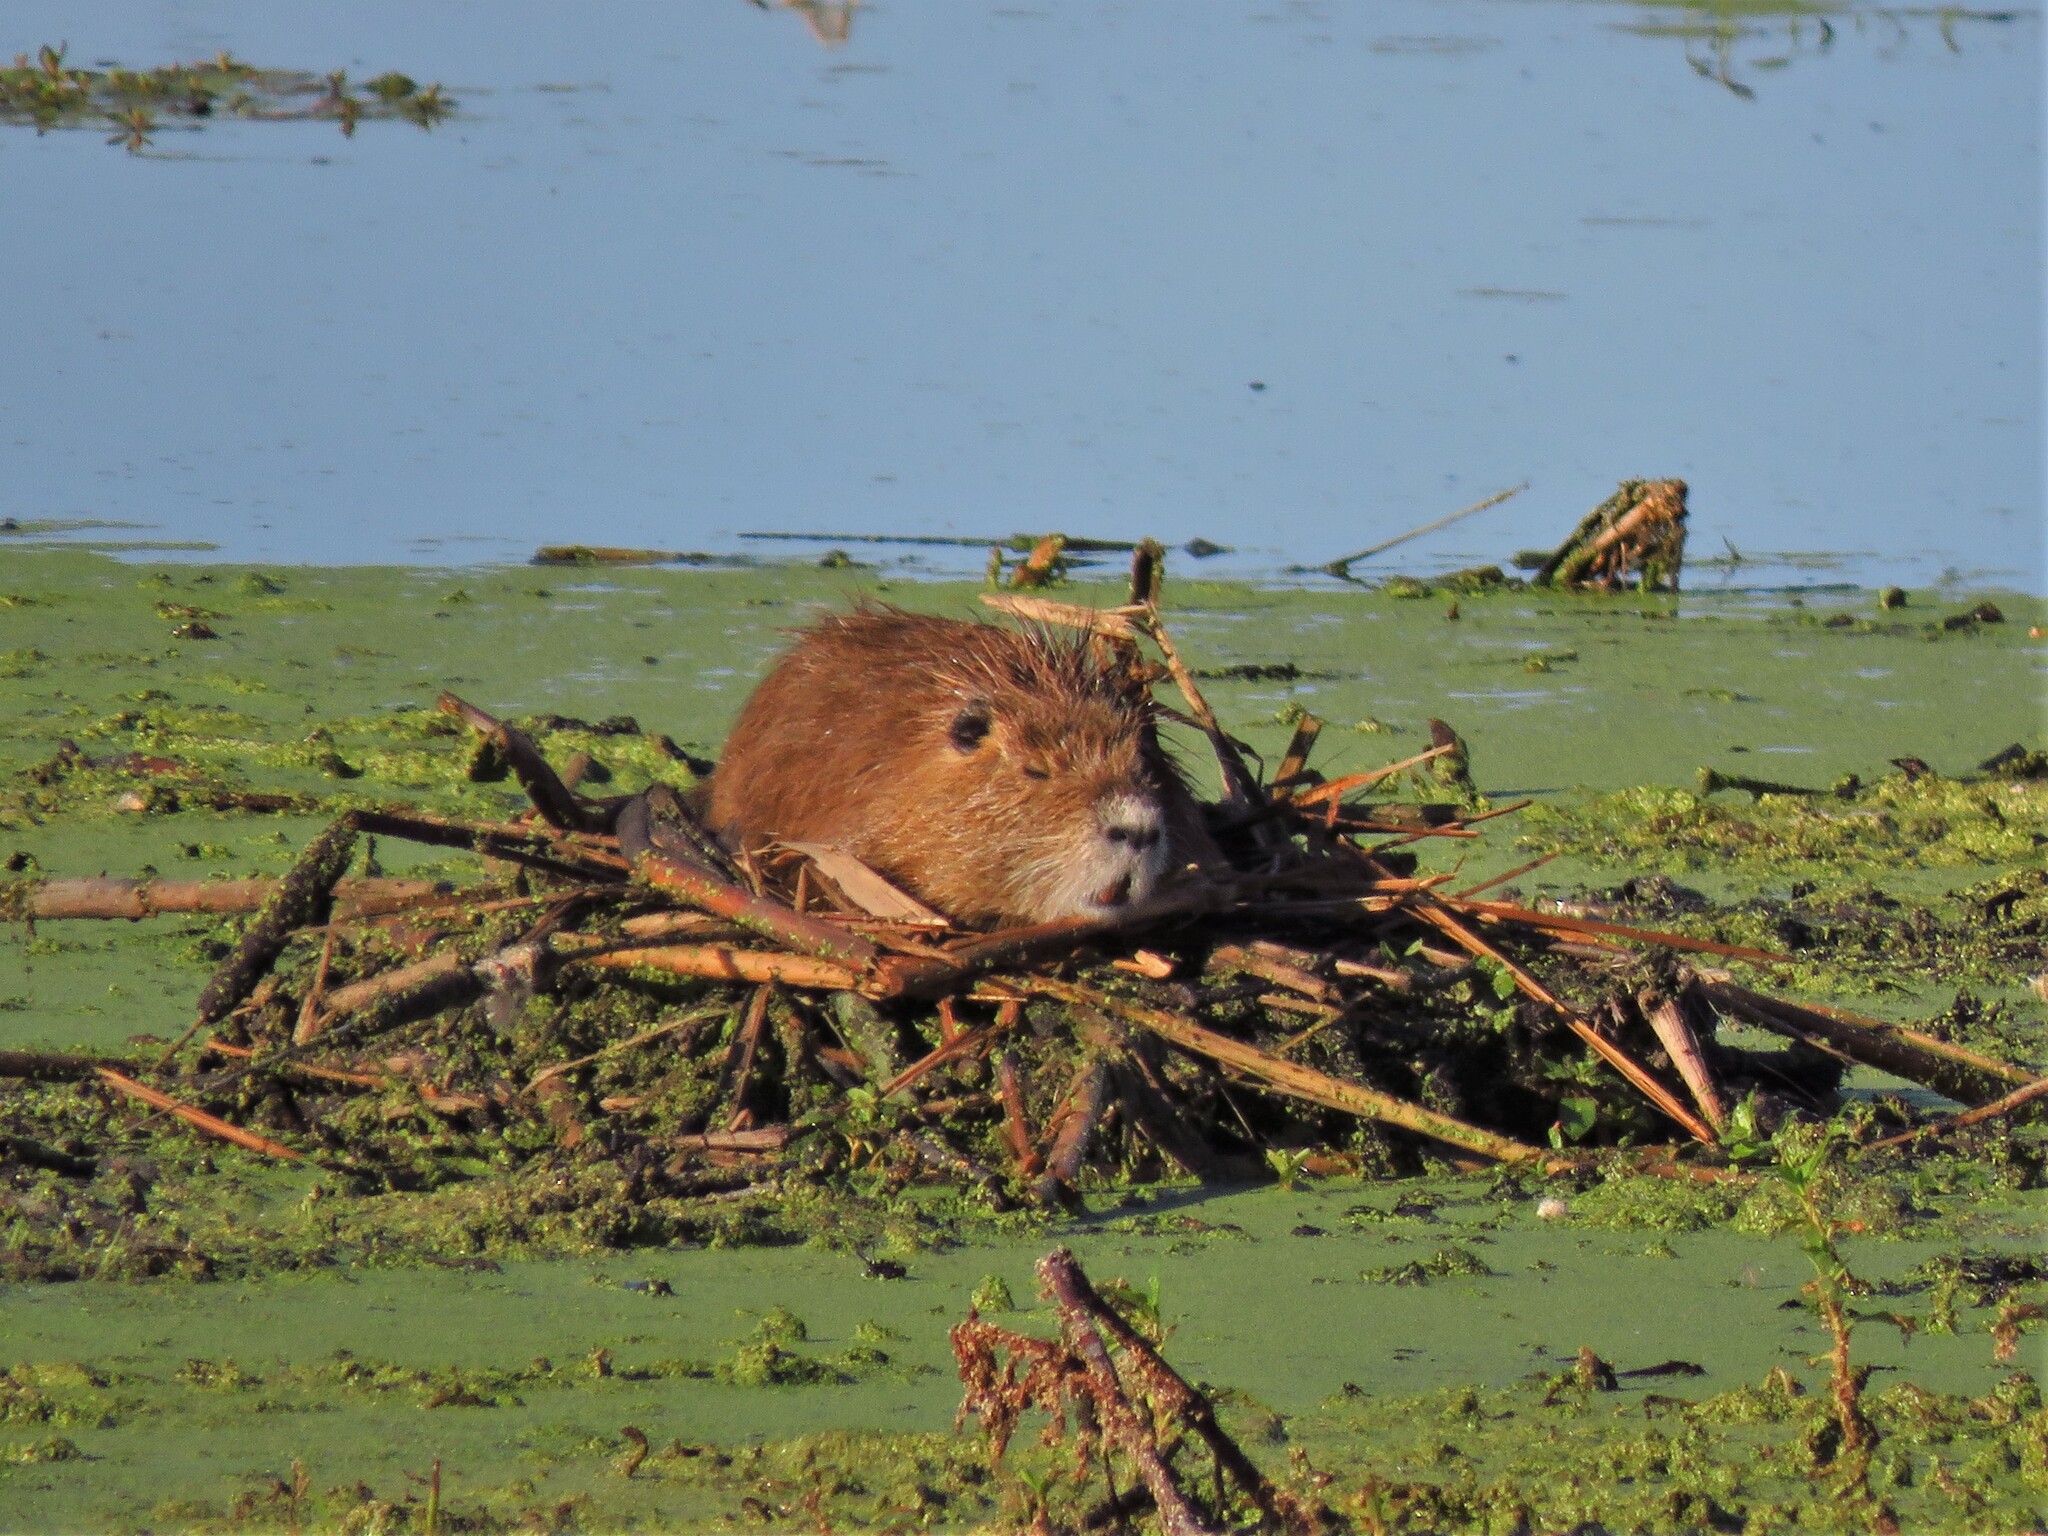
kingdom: Animalia
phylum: Chordata
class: Mammalia
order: Rodentia
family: Myocastoridae
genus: Myocastor
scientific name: Myocastor coypus
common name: Coypu
